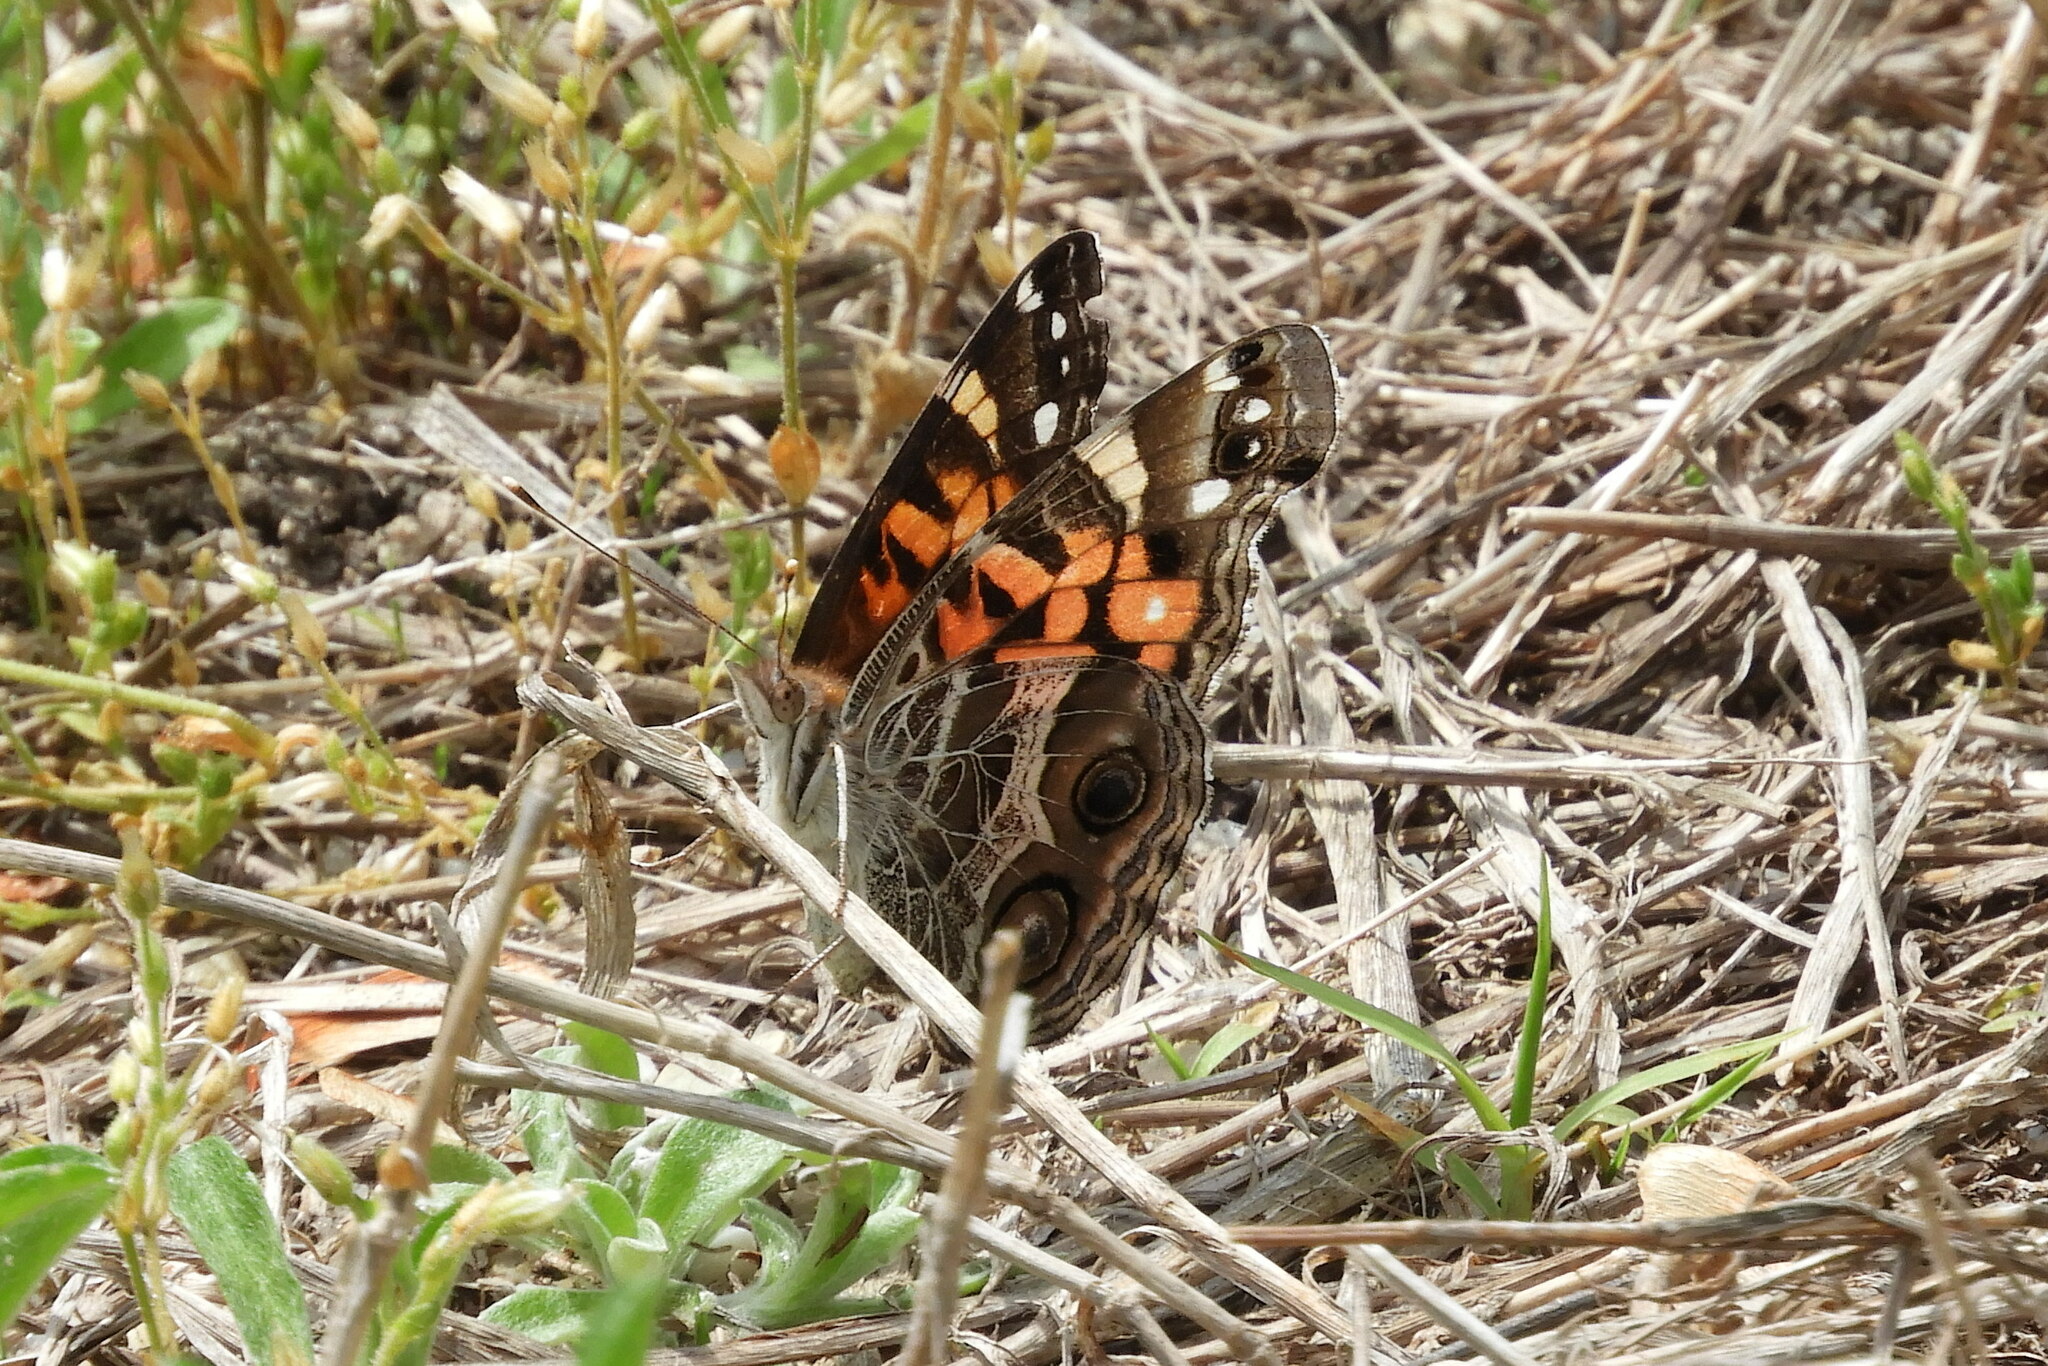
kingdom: Animalia
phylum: Arthropoda
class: Insecta
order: Lepidoptera
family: Nymphalidae
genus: Vanessa
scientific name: Vanessa virginiensis
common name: American lady
